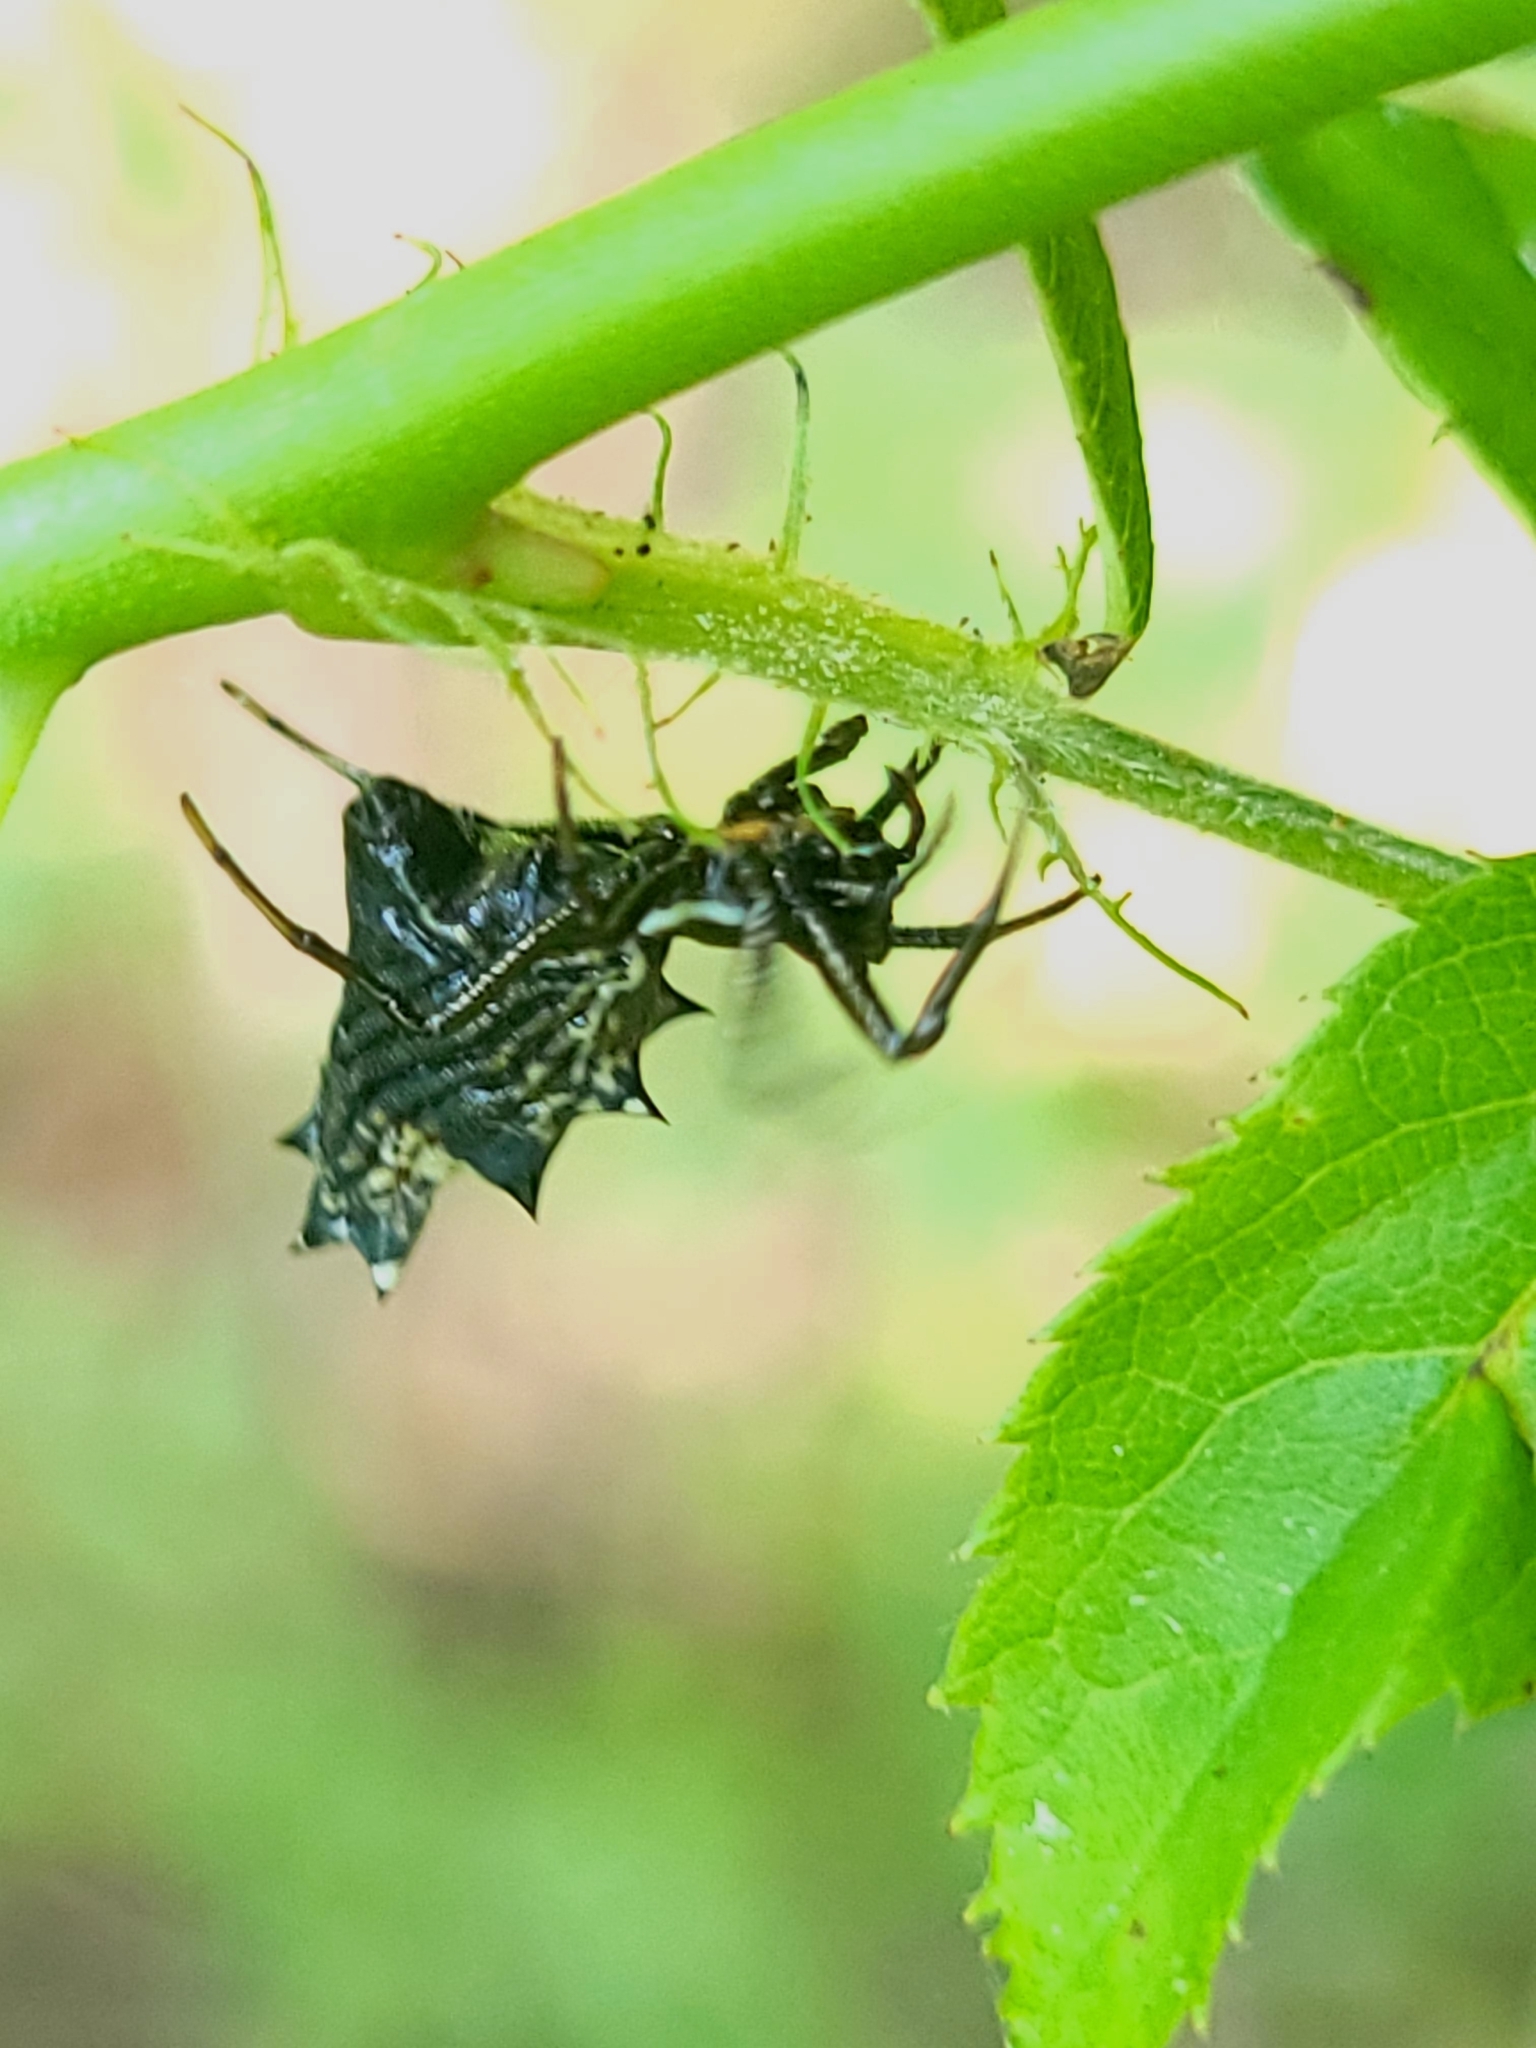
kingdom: Animalia
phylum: Arthropoda
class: Arachnida
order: Araneae
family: Araneidae
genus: Micrathena
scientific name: Micrathena gracilis
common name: Orb weavers
